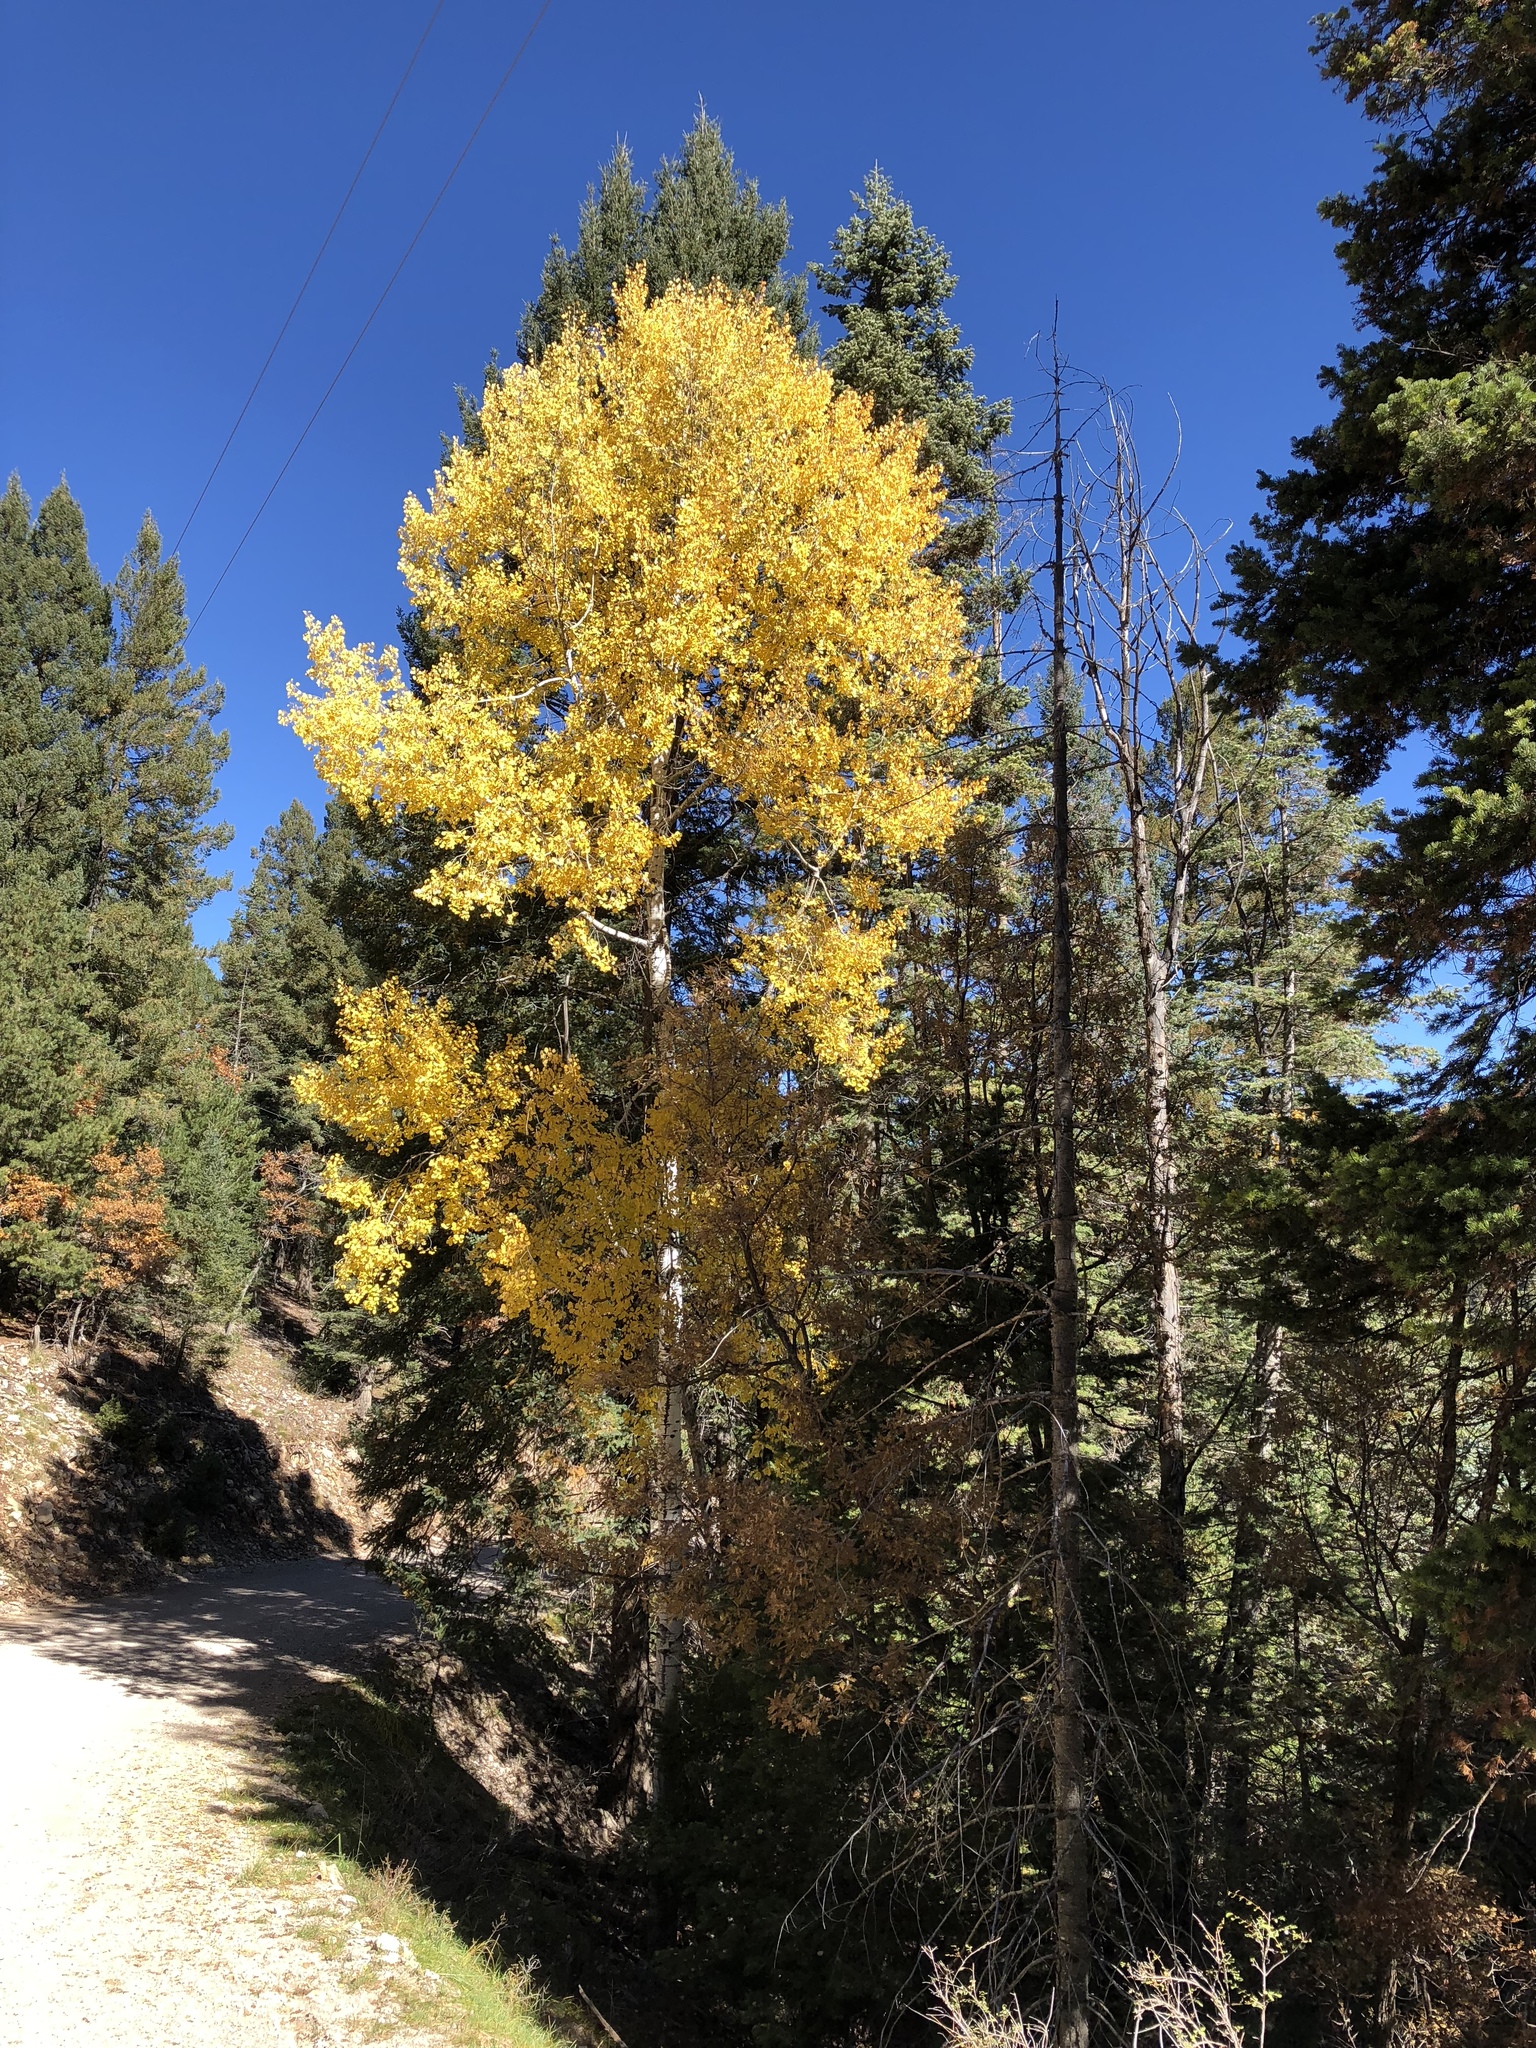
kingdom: Plantae
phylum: Tracheophyta
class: Magnoliopsida
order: Malpighiales
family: Salicaceae
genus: Populus
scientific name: Populus tremuloides
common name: Quaking aspen
